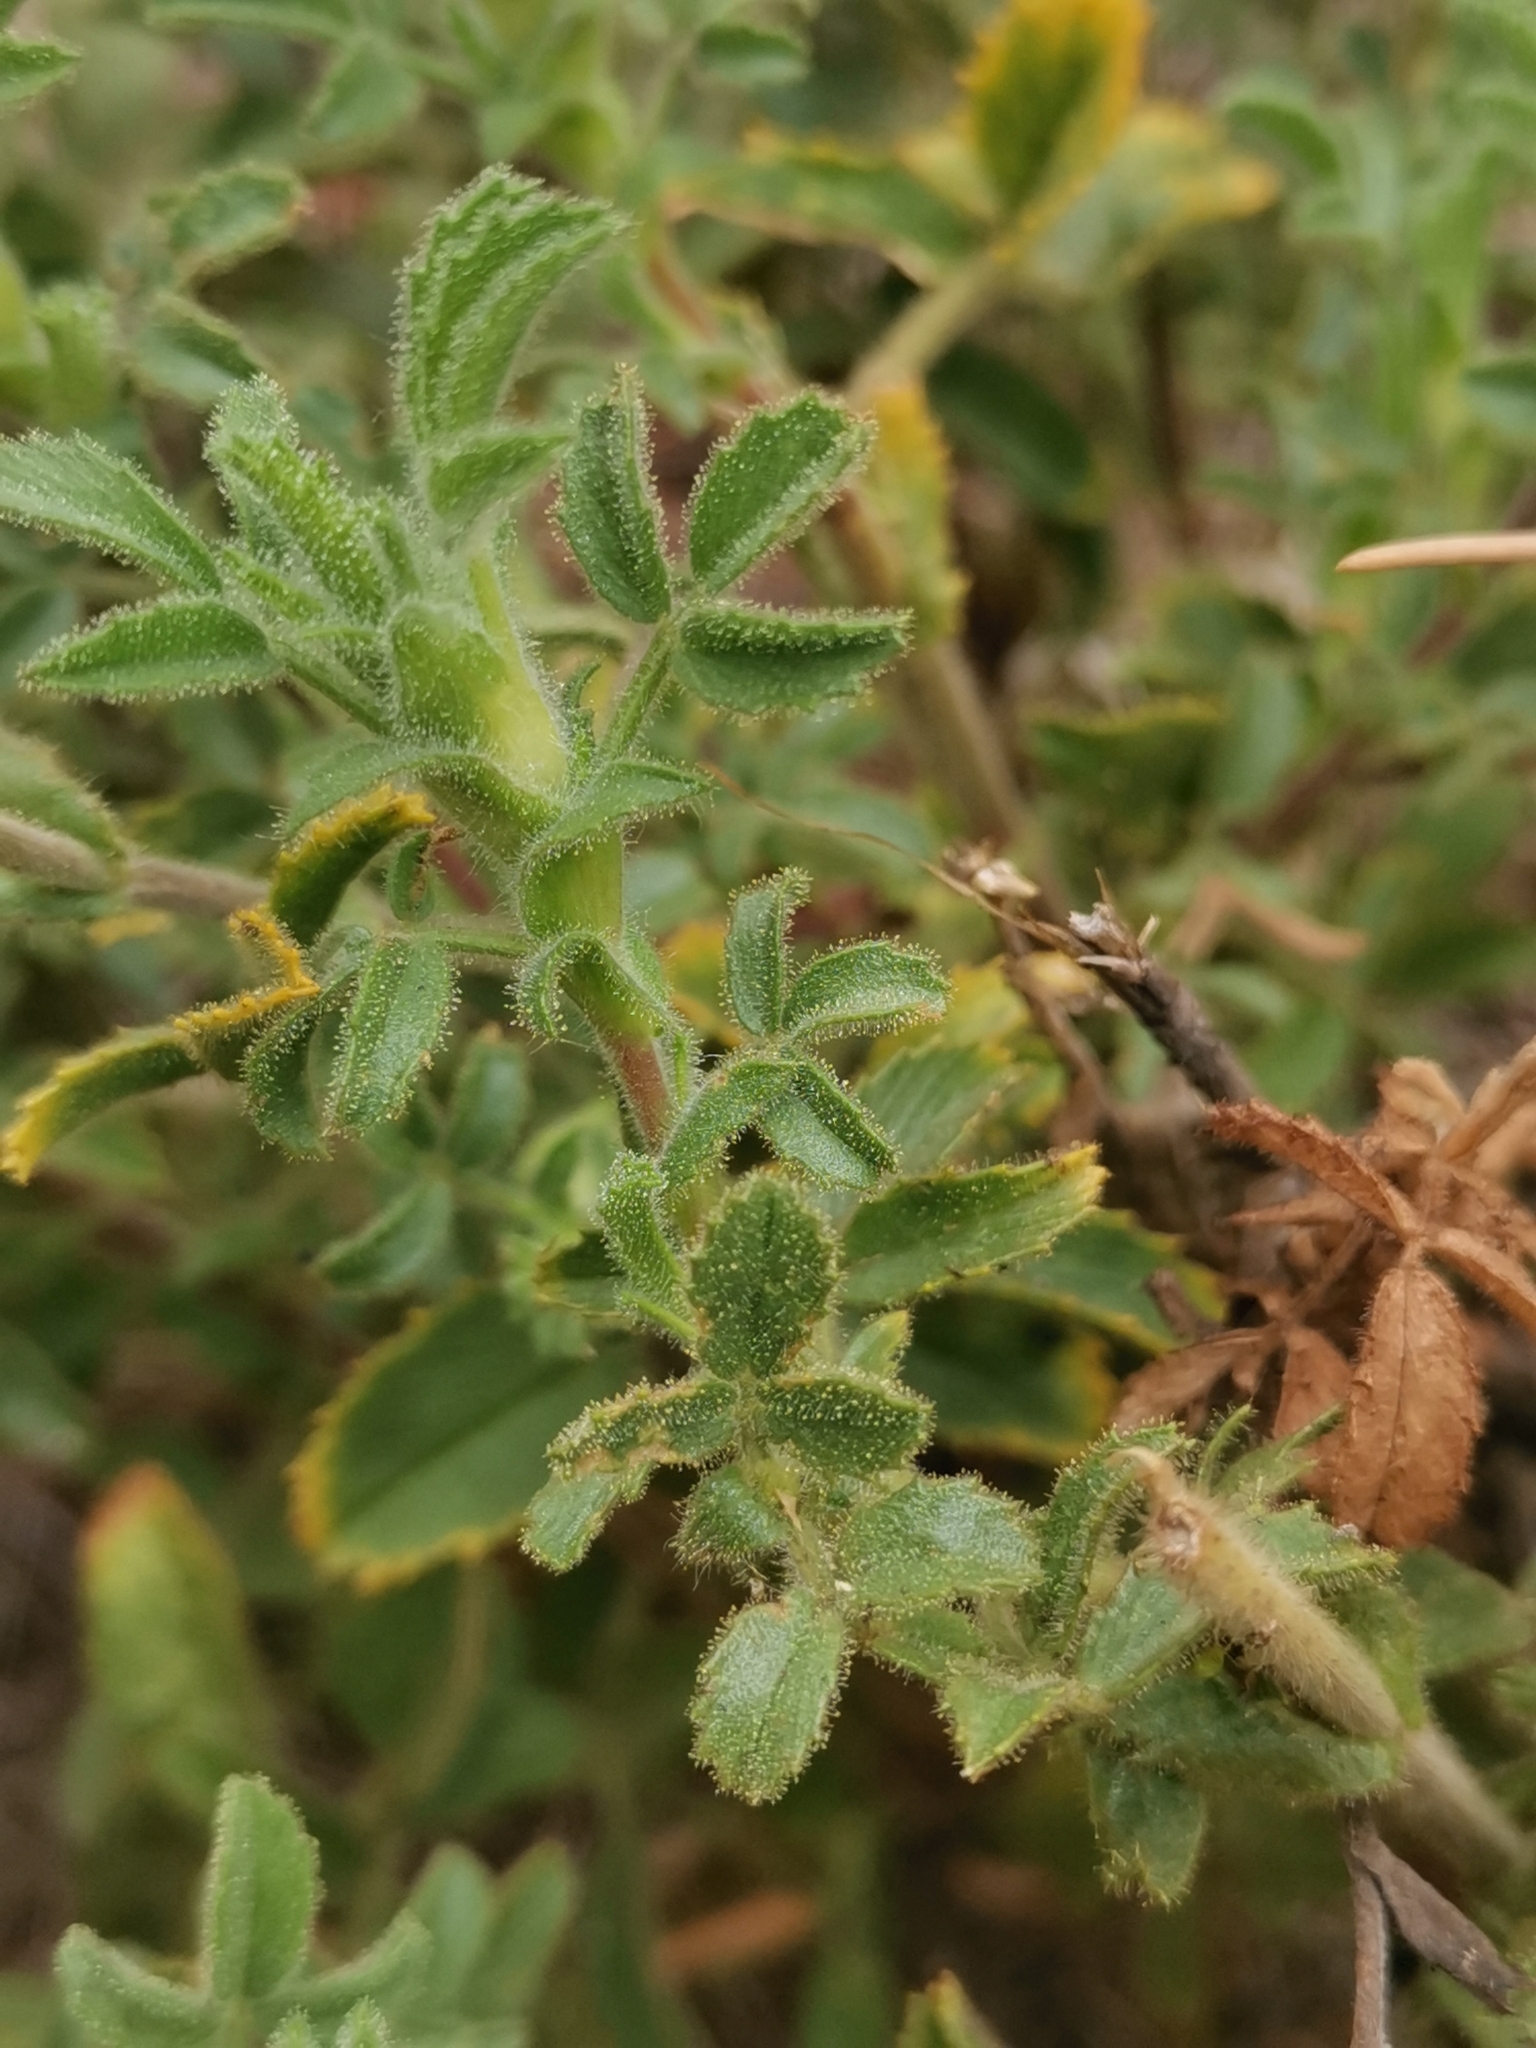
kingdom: Plantae
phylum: Tracheophyta
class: Magnoliopsida
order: Fabales
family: Fabaceae
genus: Ononis
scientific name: Ononis natrix
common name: Yellow restharrow
